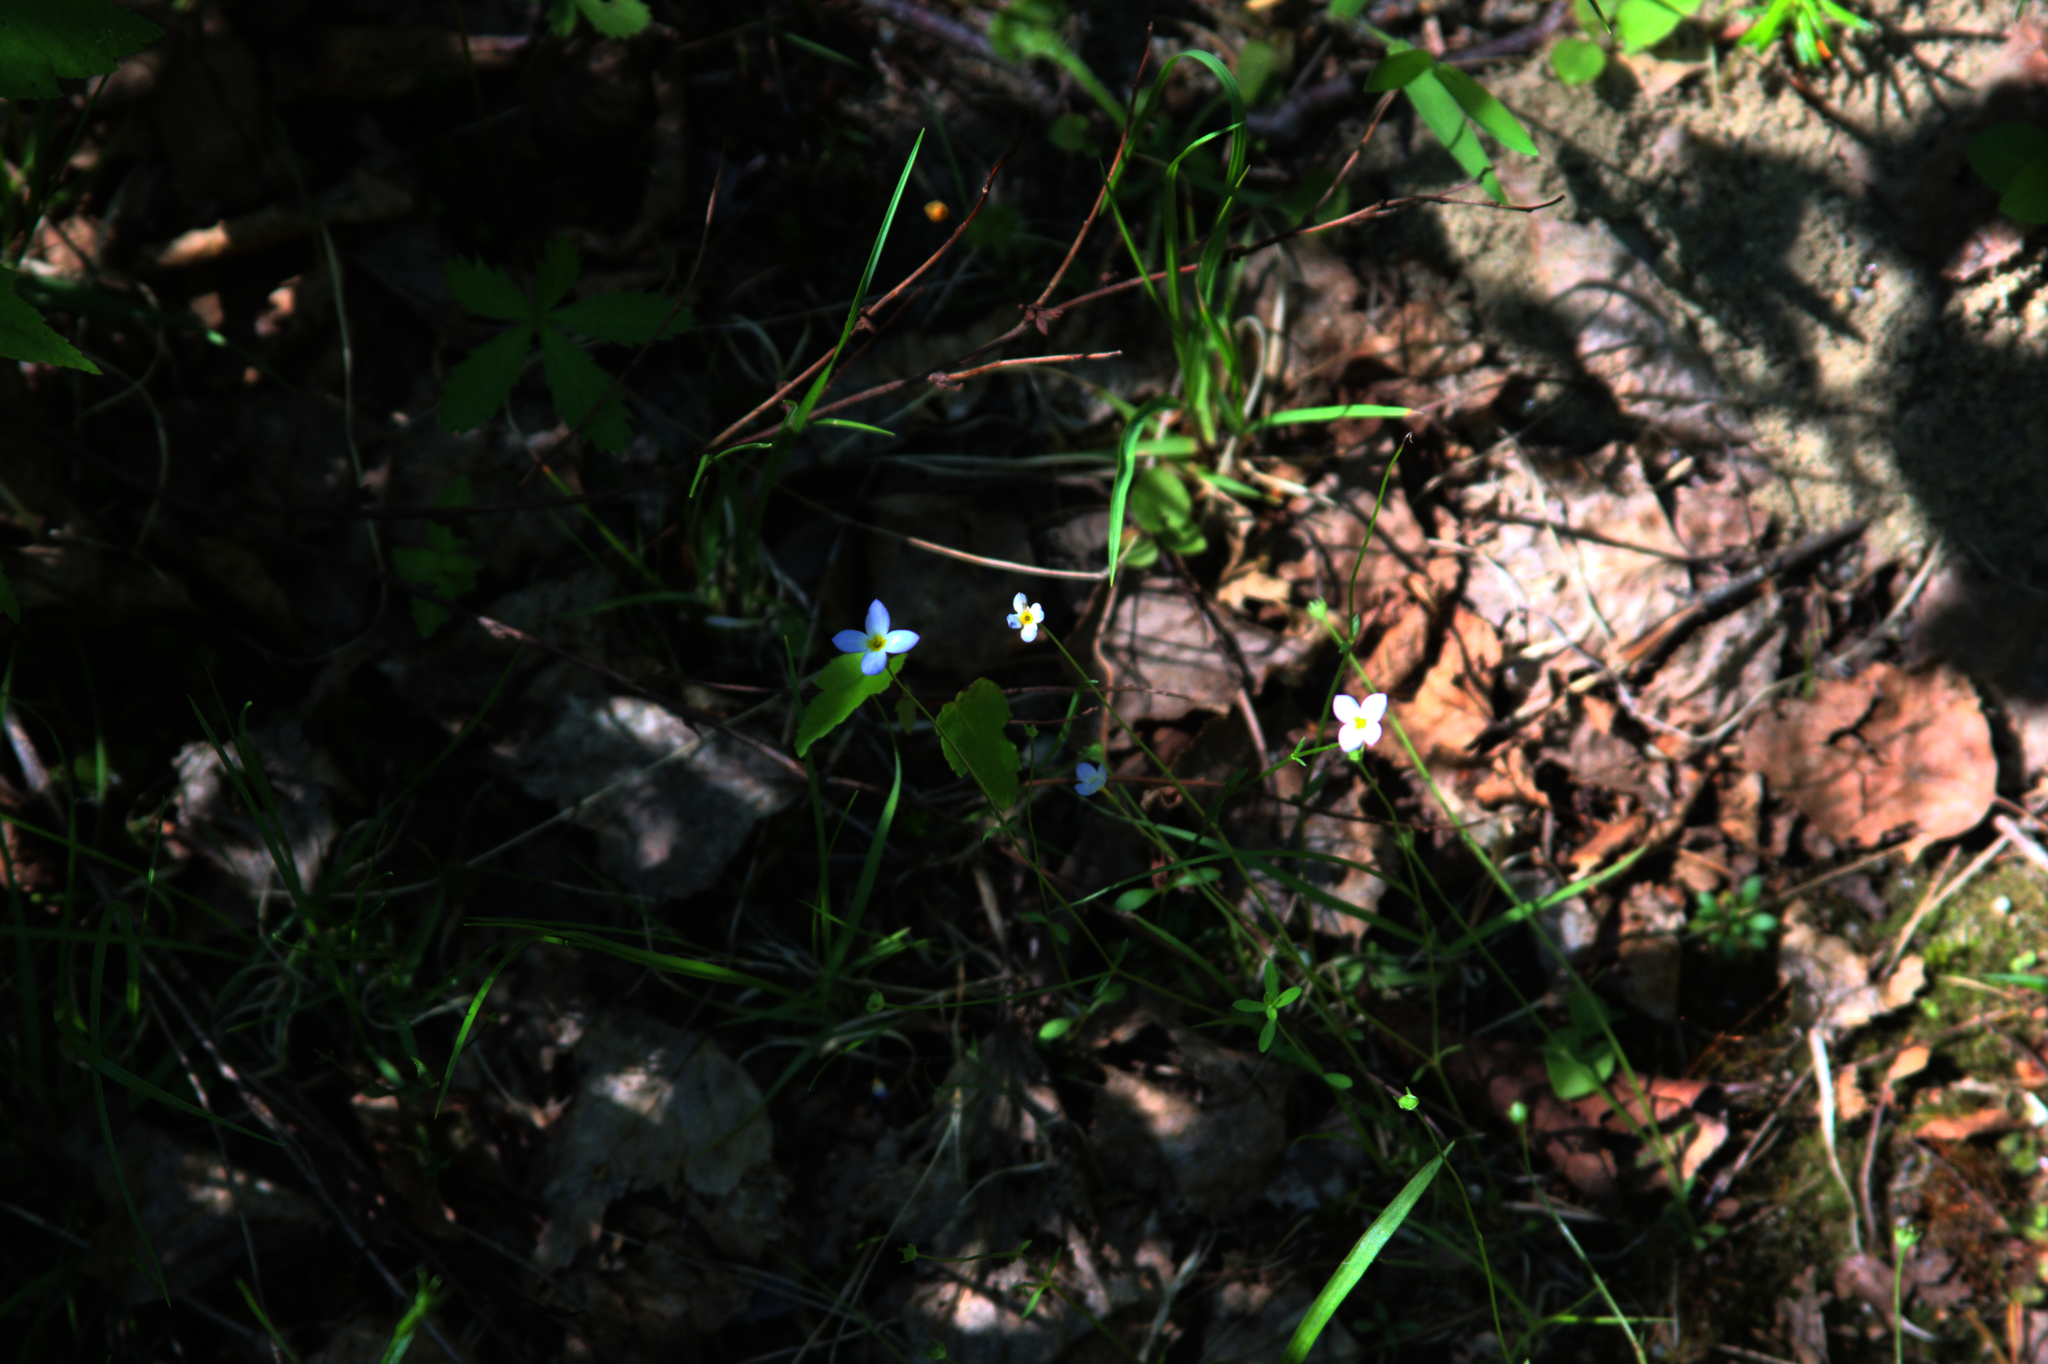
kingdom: Plantae
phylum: Tracheophyta
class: Magnoliopsida
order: Gentianales
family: Rubiaceae
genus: Houstonia
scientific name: Houstonia caerulea
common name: Bluets
